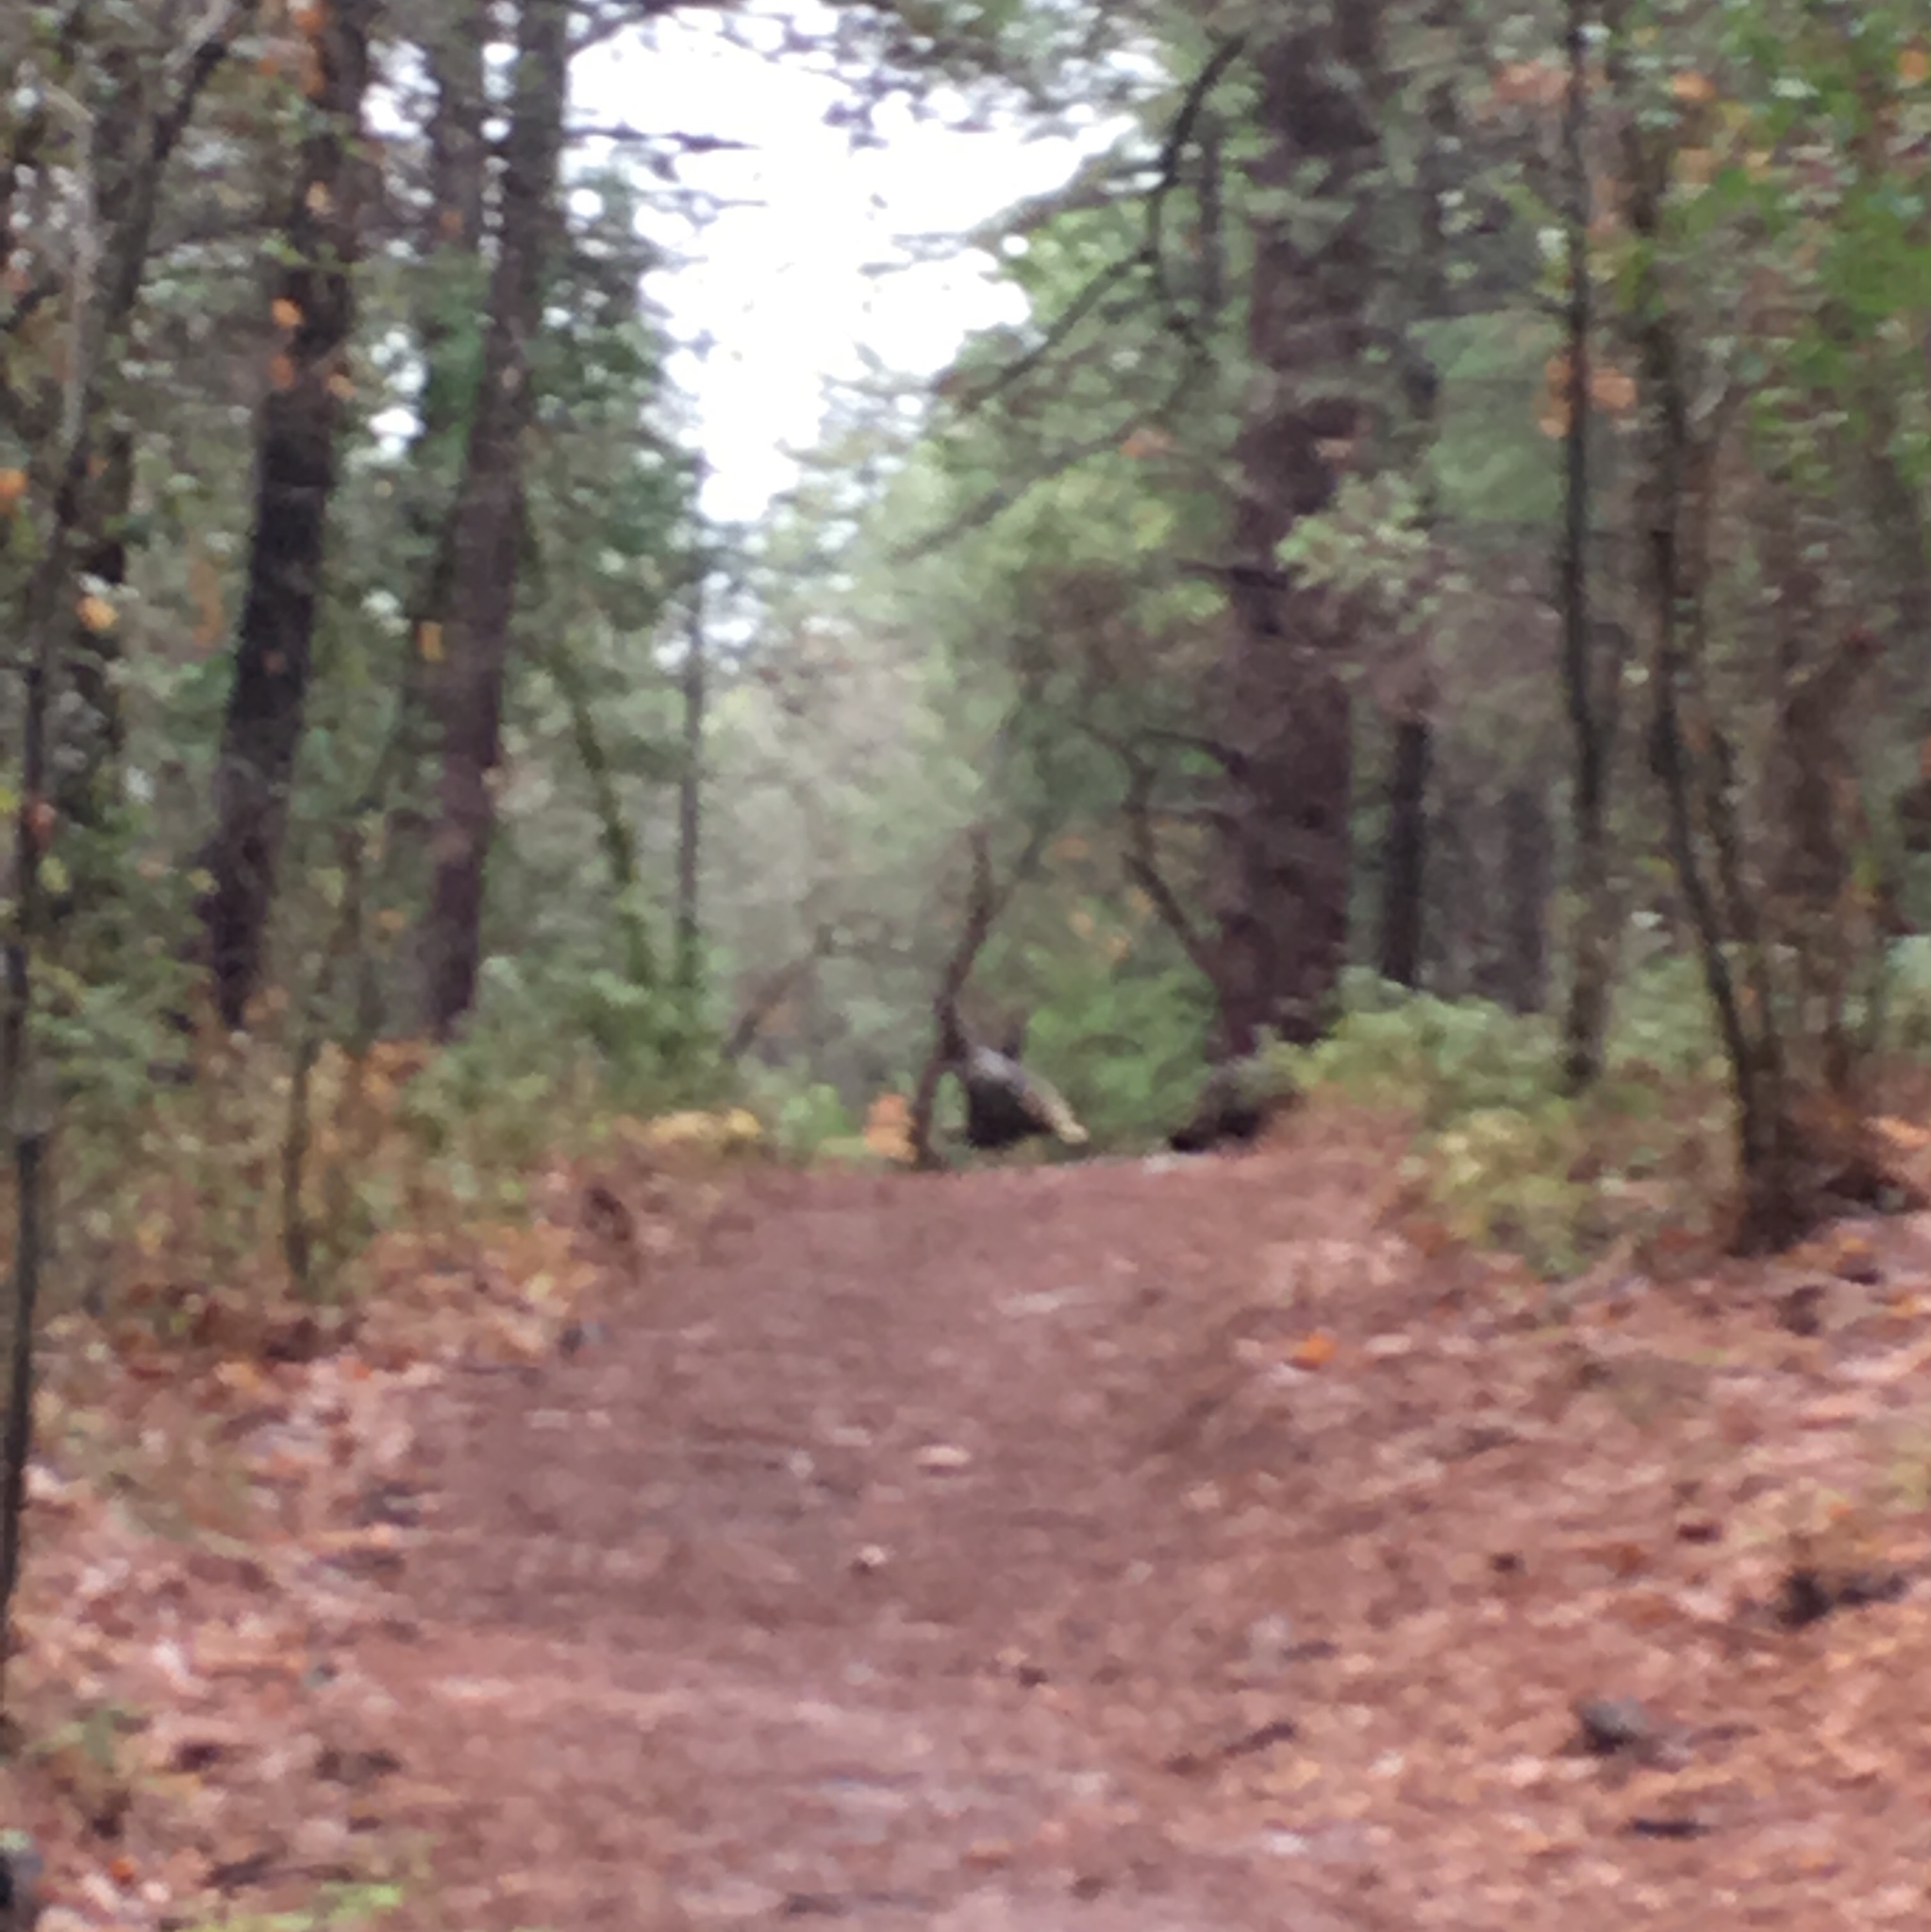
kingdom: Animalia
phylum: Chordata
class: Aves
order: Galliformes
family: Phasianidae
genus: Meleagris
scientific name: Meleagris gallopavo
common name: Wild turkey
